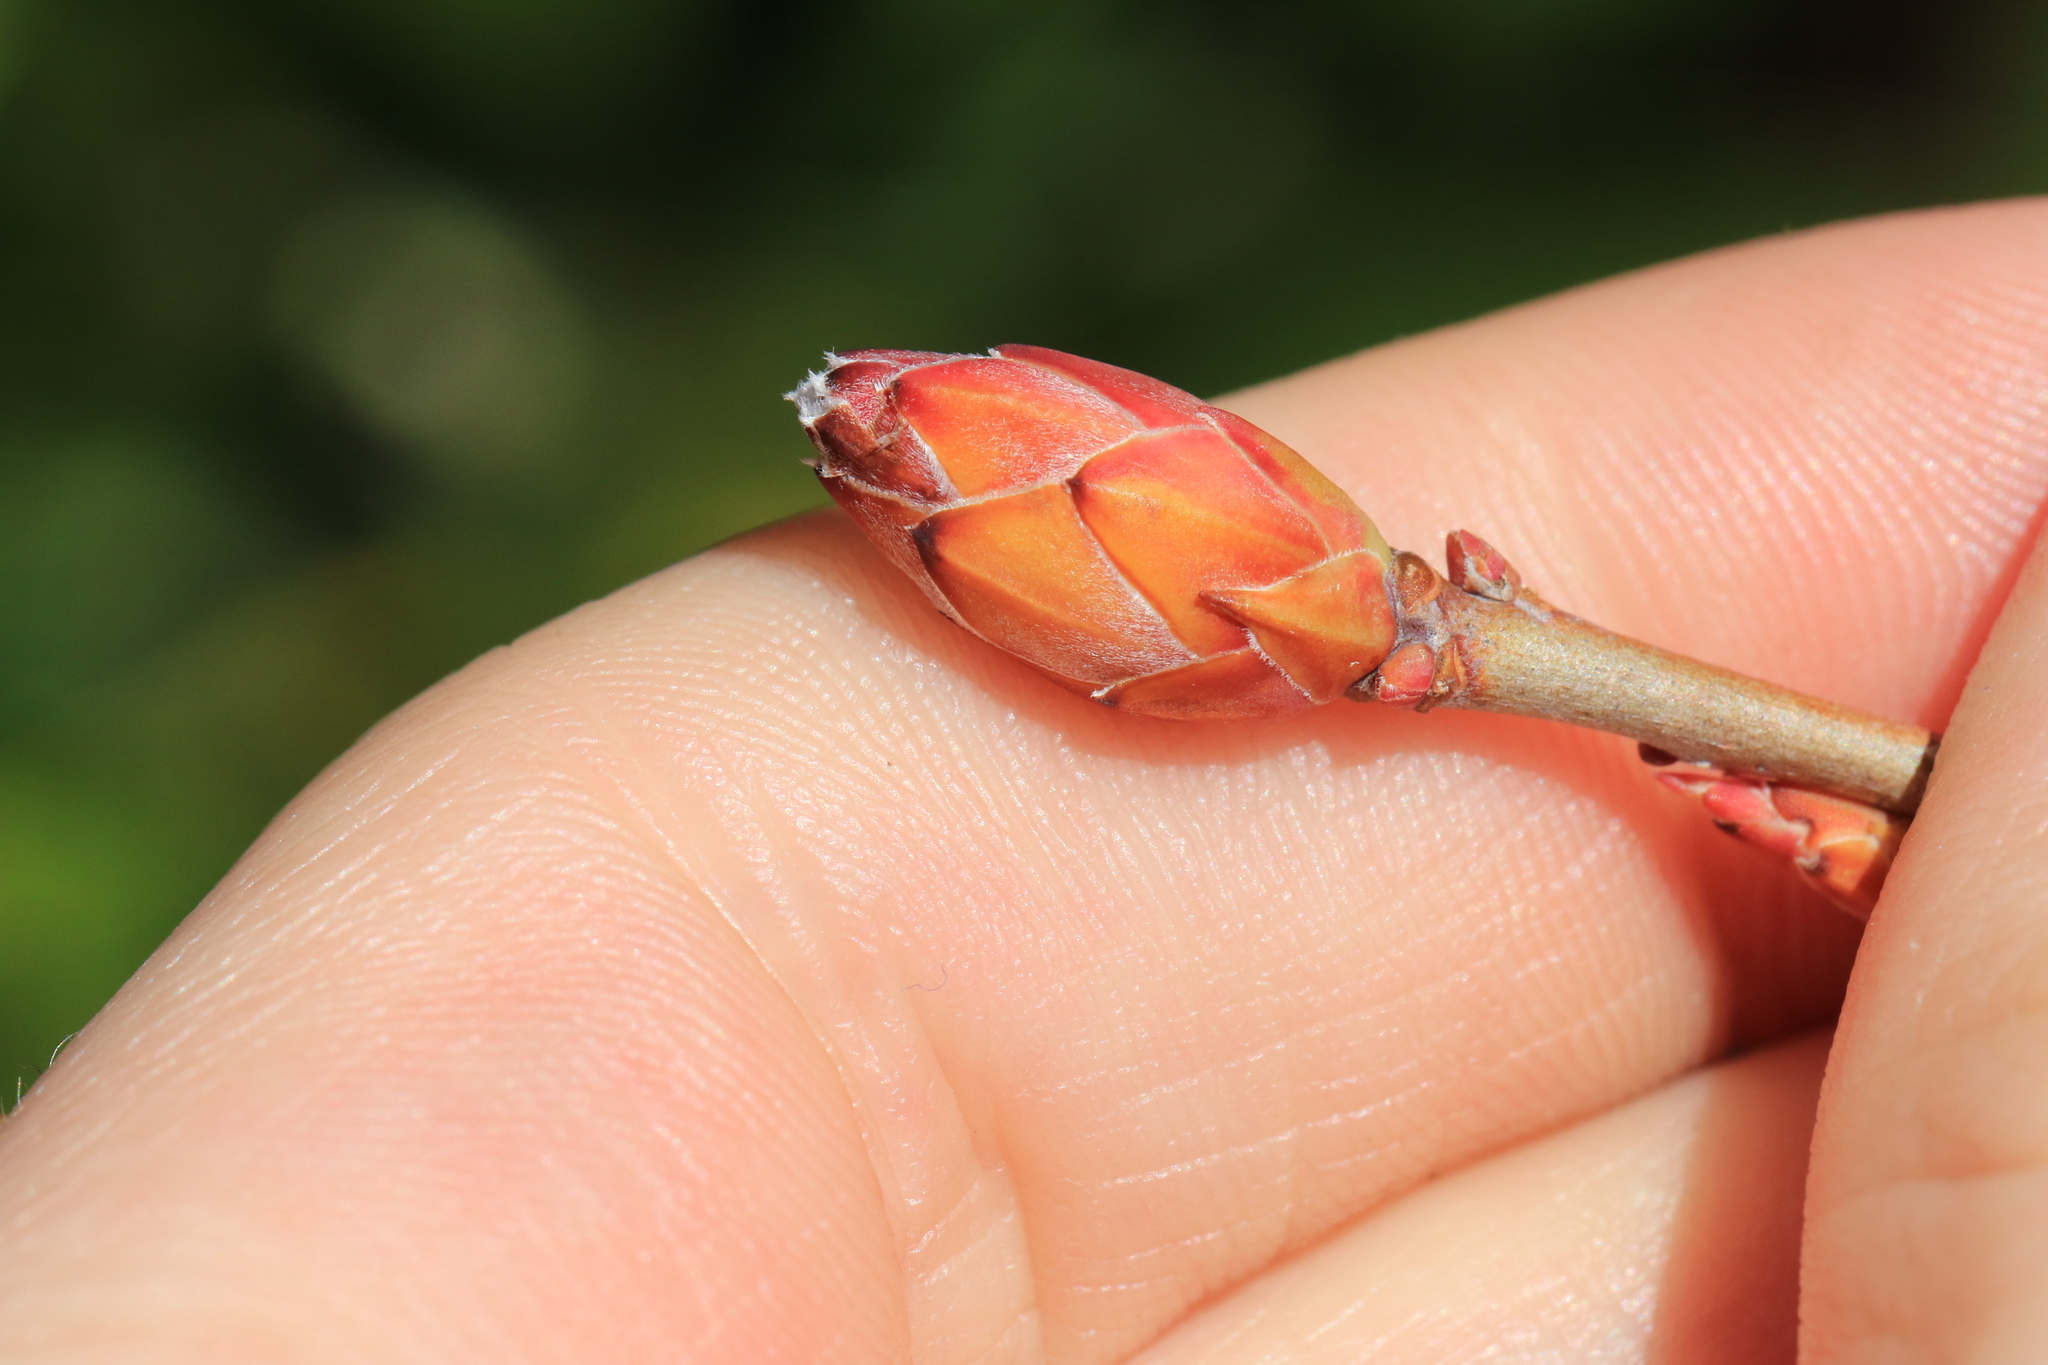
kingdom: Plantae
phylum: Tracheophyta
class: Magnoliopsida
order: Ericales
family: Ericaceae
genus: Rhododendron
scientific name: Rhododendron occidentale
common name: Western azalea
